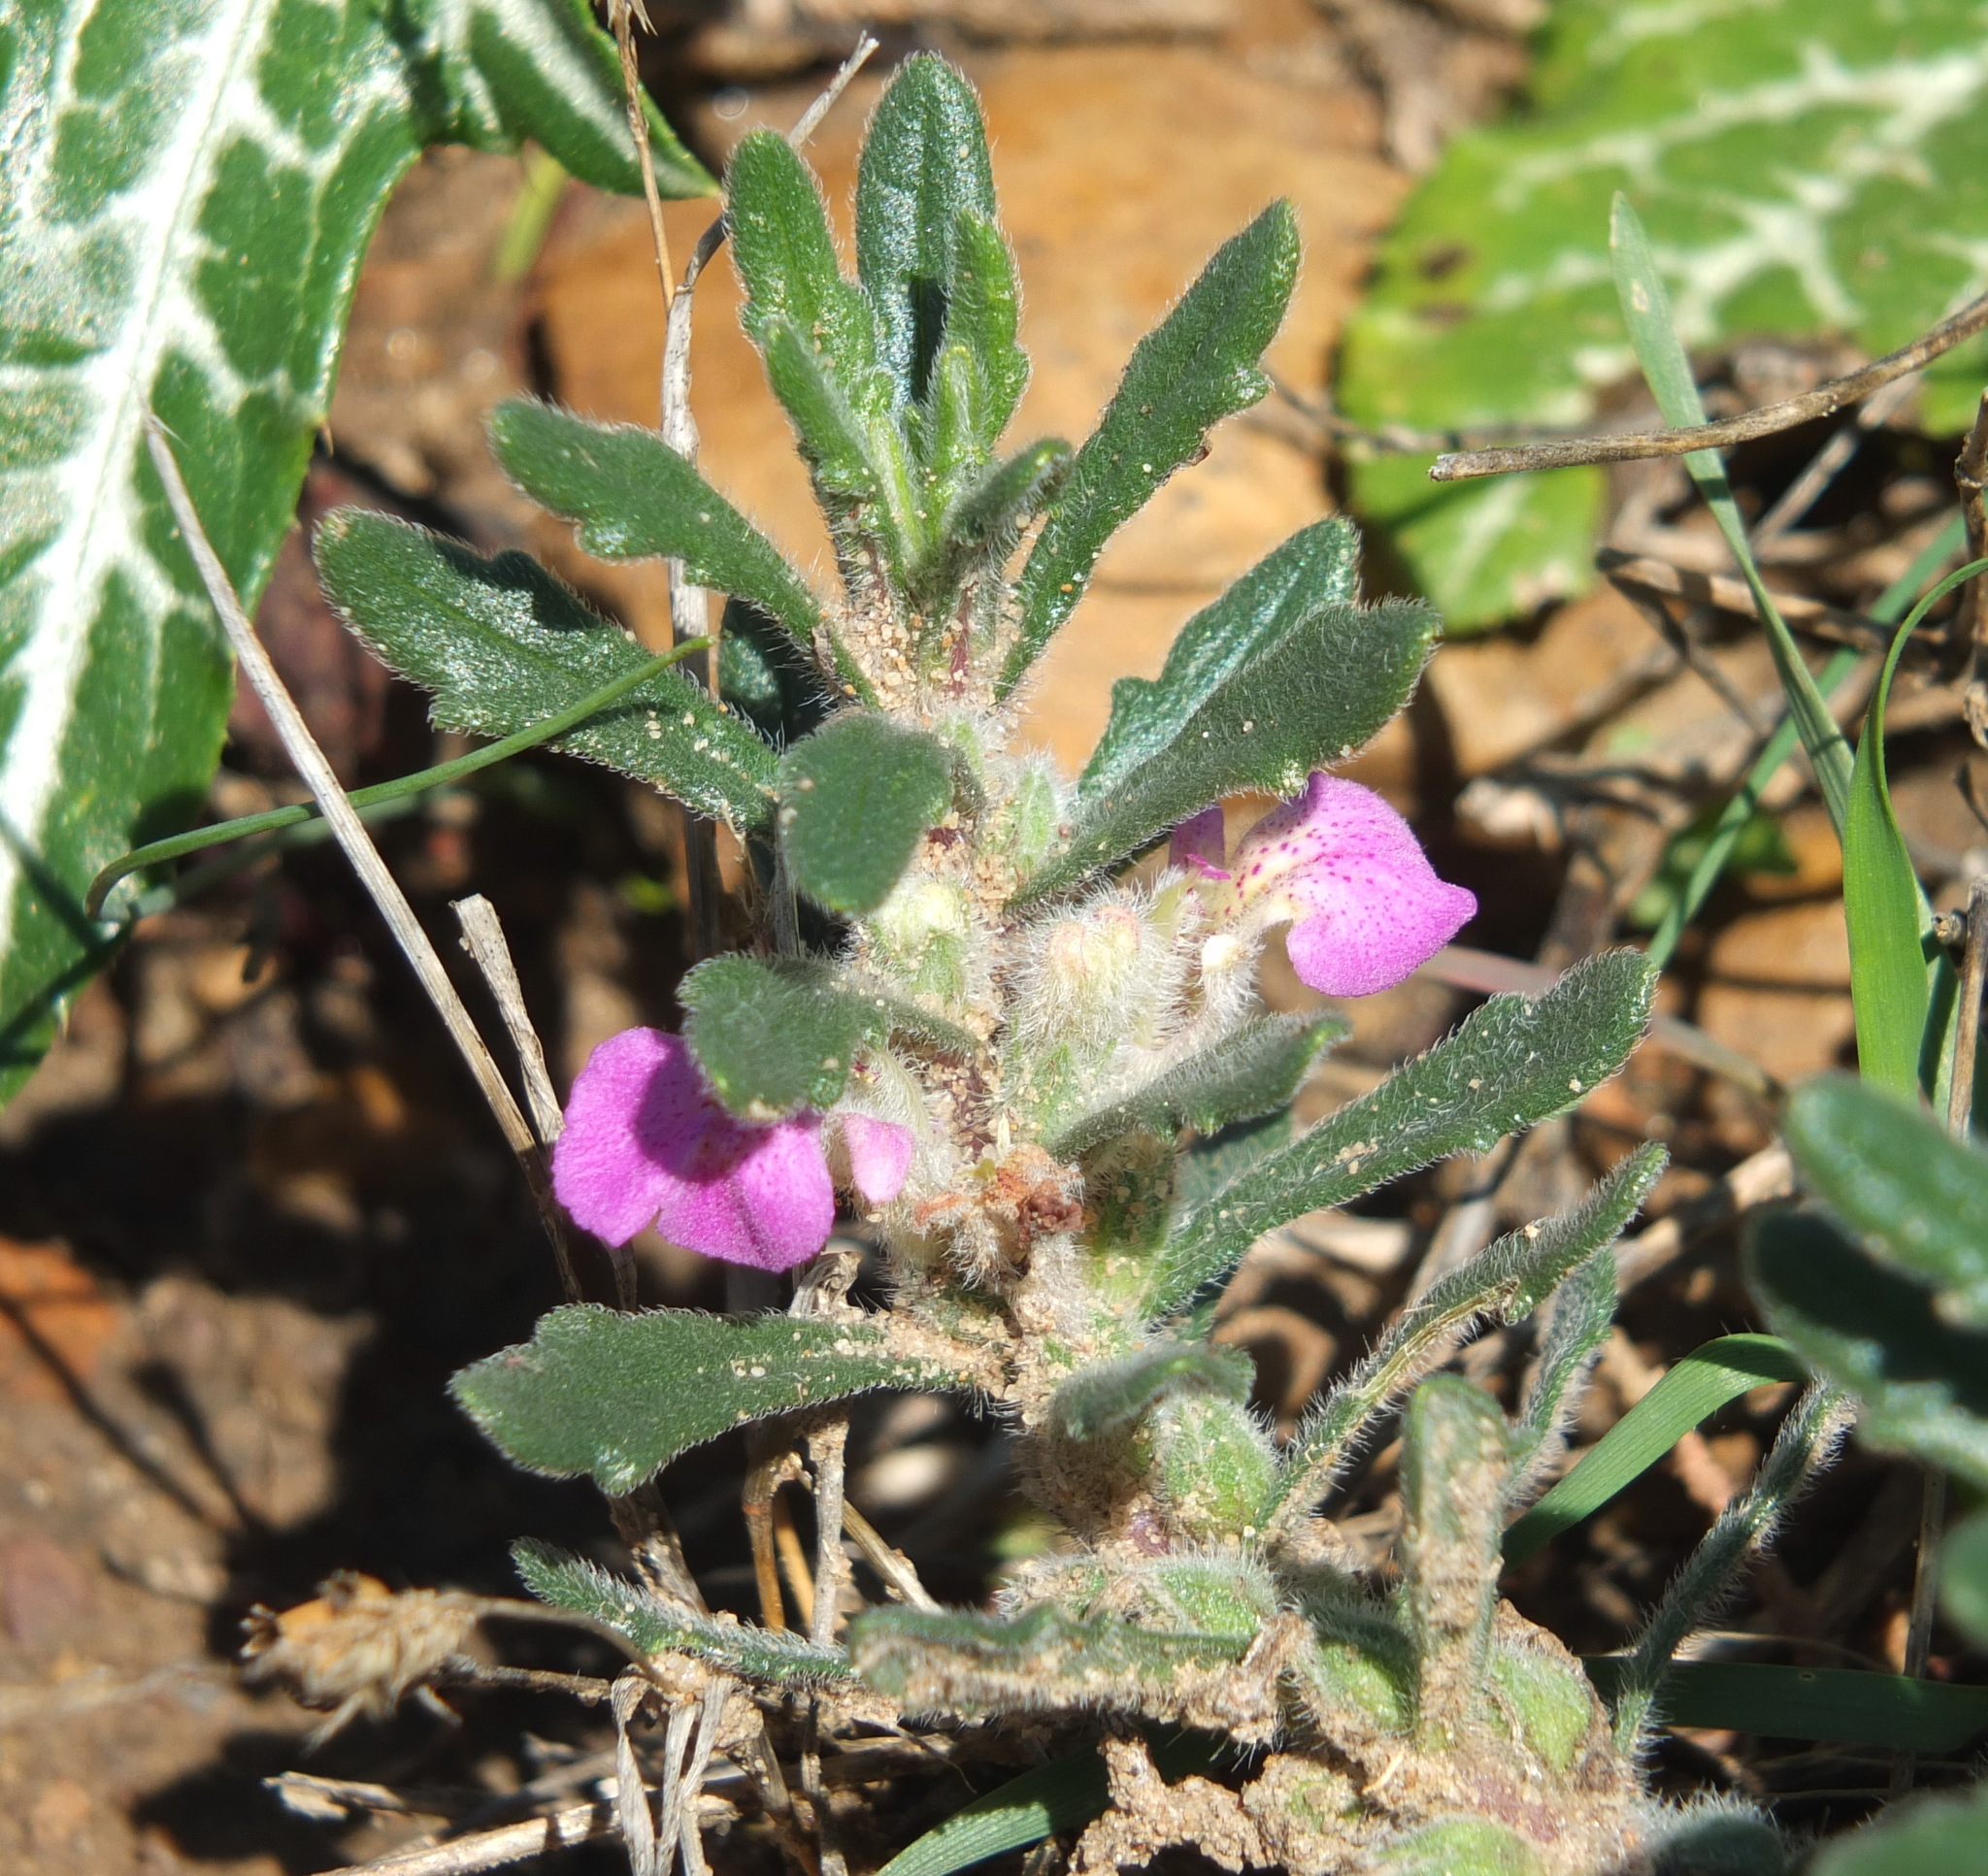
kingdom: Plantae
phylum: Tracheophyta
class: Magnoliopsida
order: Lamiales
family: Lamiaceae
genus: Ajuga
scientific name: Ajuga iva
